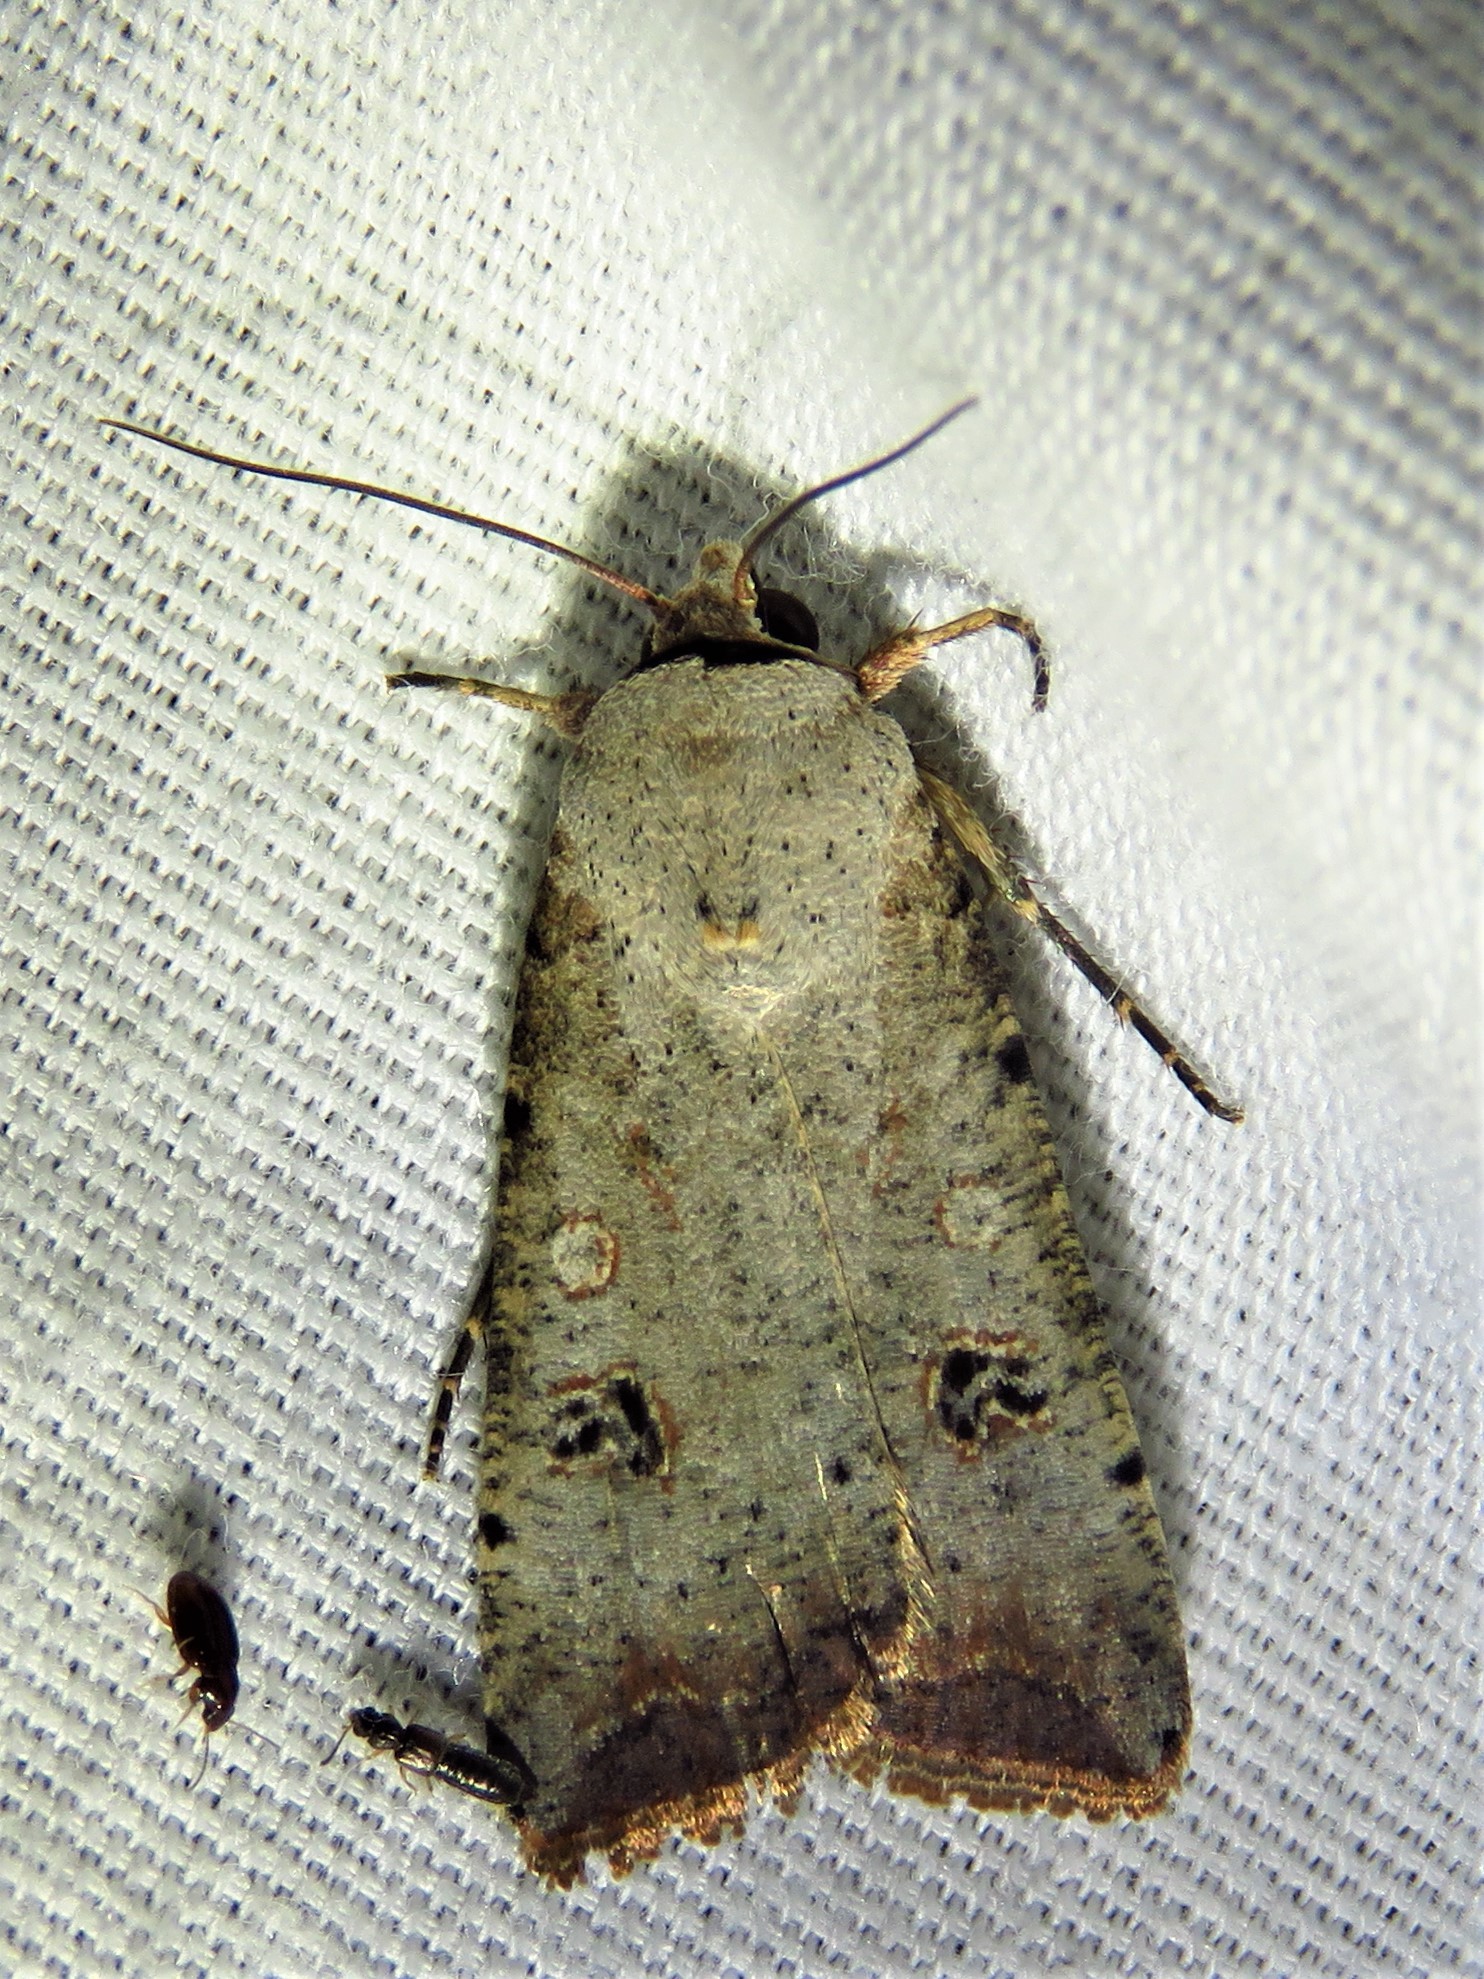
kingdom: Animalia
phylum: Arthropoda
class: Insecta
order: Lepidoptera
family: Noctuidae
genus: Anicla
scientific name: Anicla infecta
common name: Green cutworm
